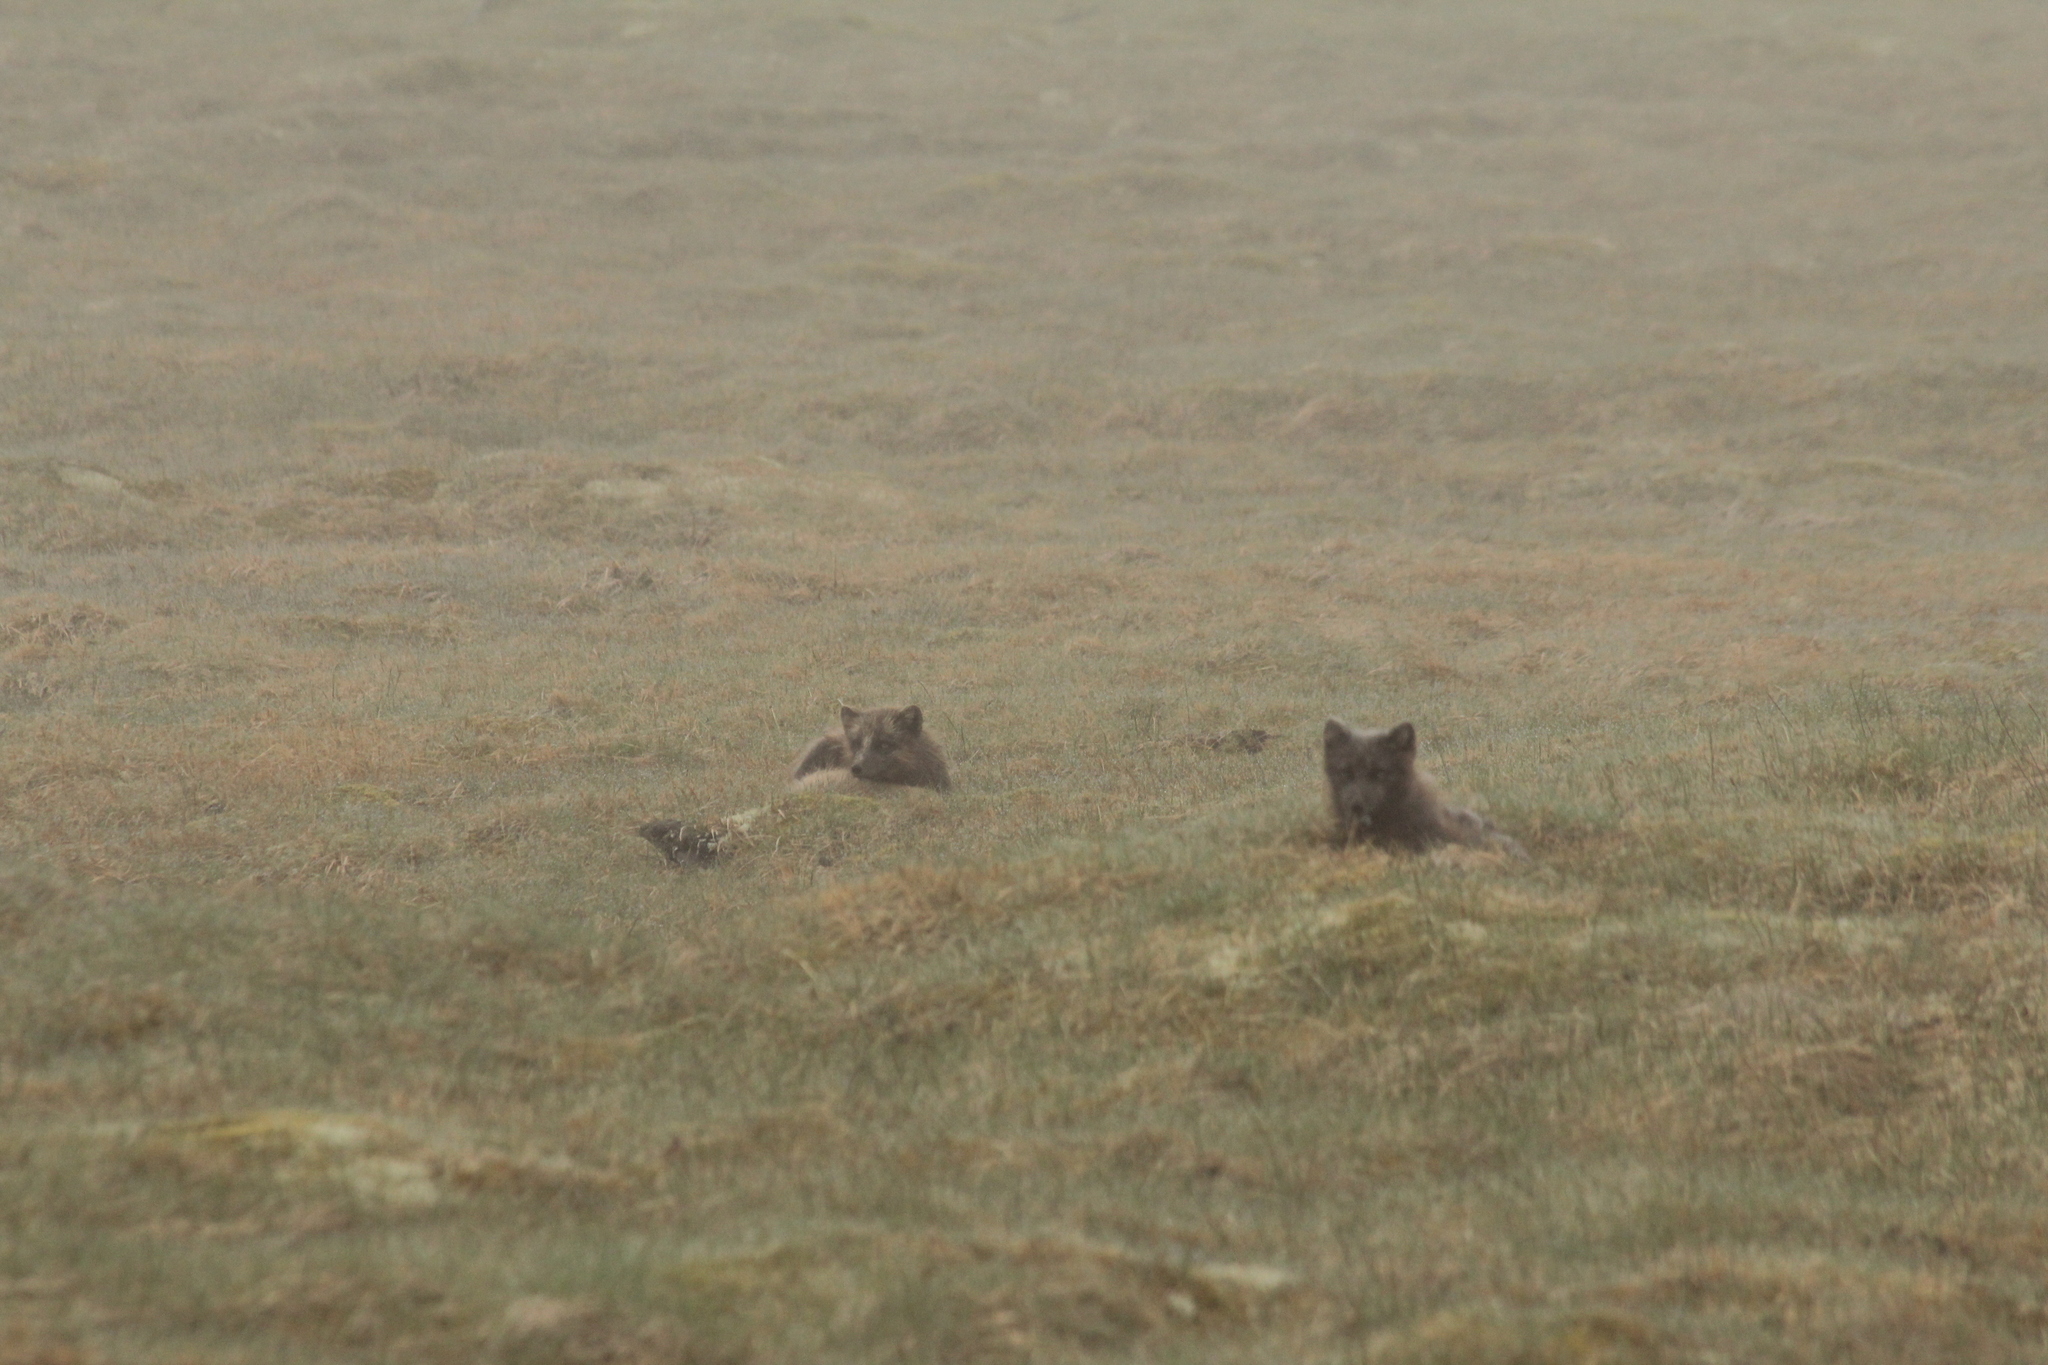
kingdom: Animalia
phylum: Chordata
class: Mammalia
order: Carnivora
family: Canidae
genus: Vulpes
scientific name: Vulpes lagopus
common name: Arctic fox
